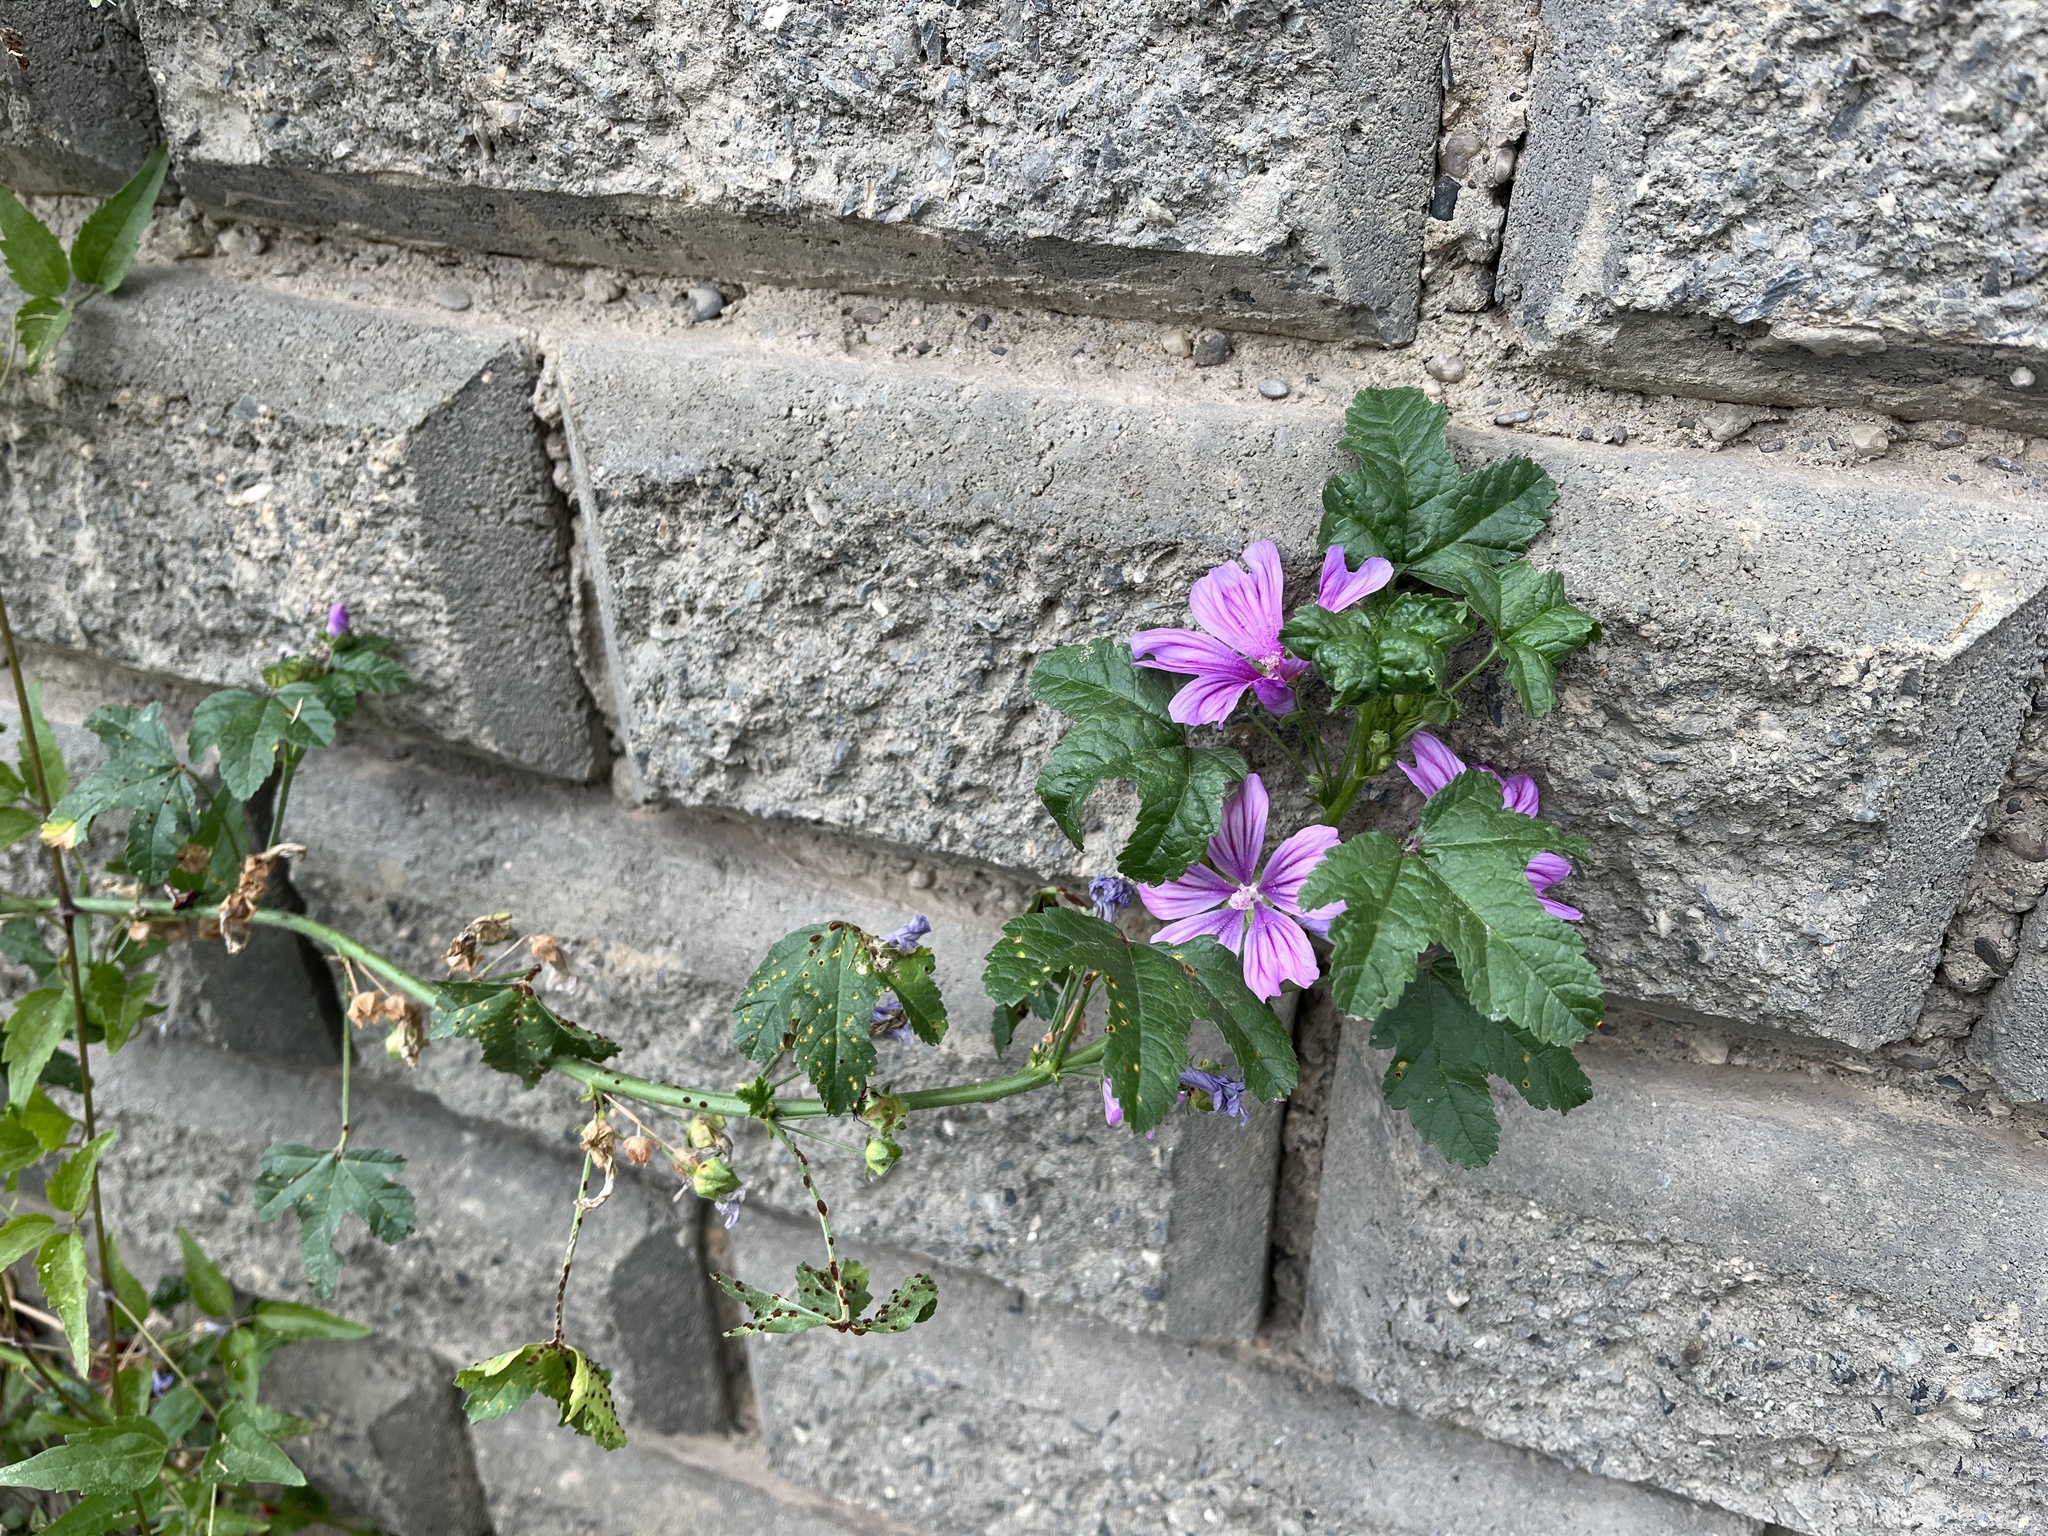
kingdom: Plantae
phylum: Tracheophyta
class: Magnoliopsida
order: Malvales
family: Malvaceae
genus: Malva
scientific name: Malva sylvestris
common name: Common mallow
